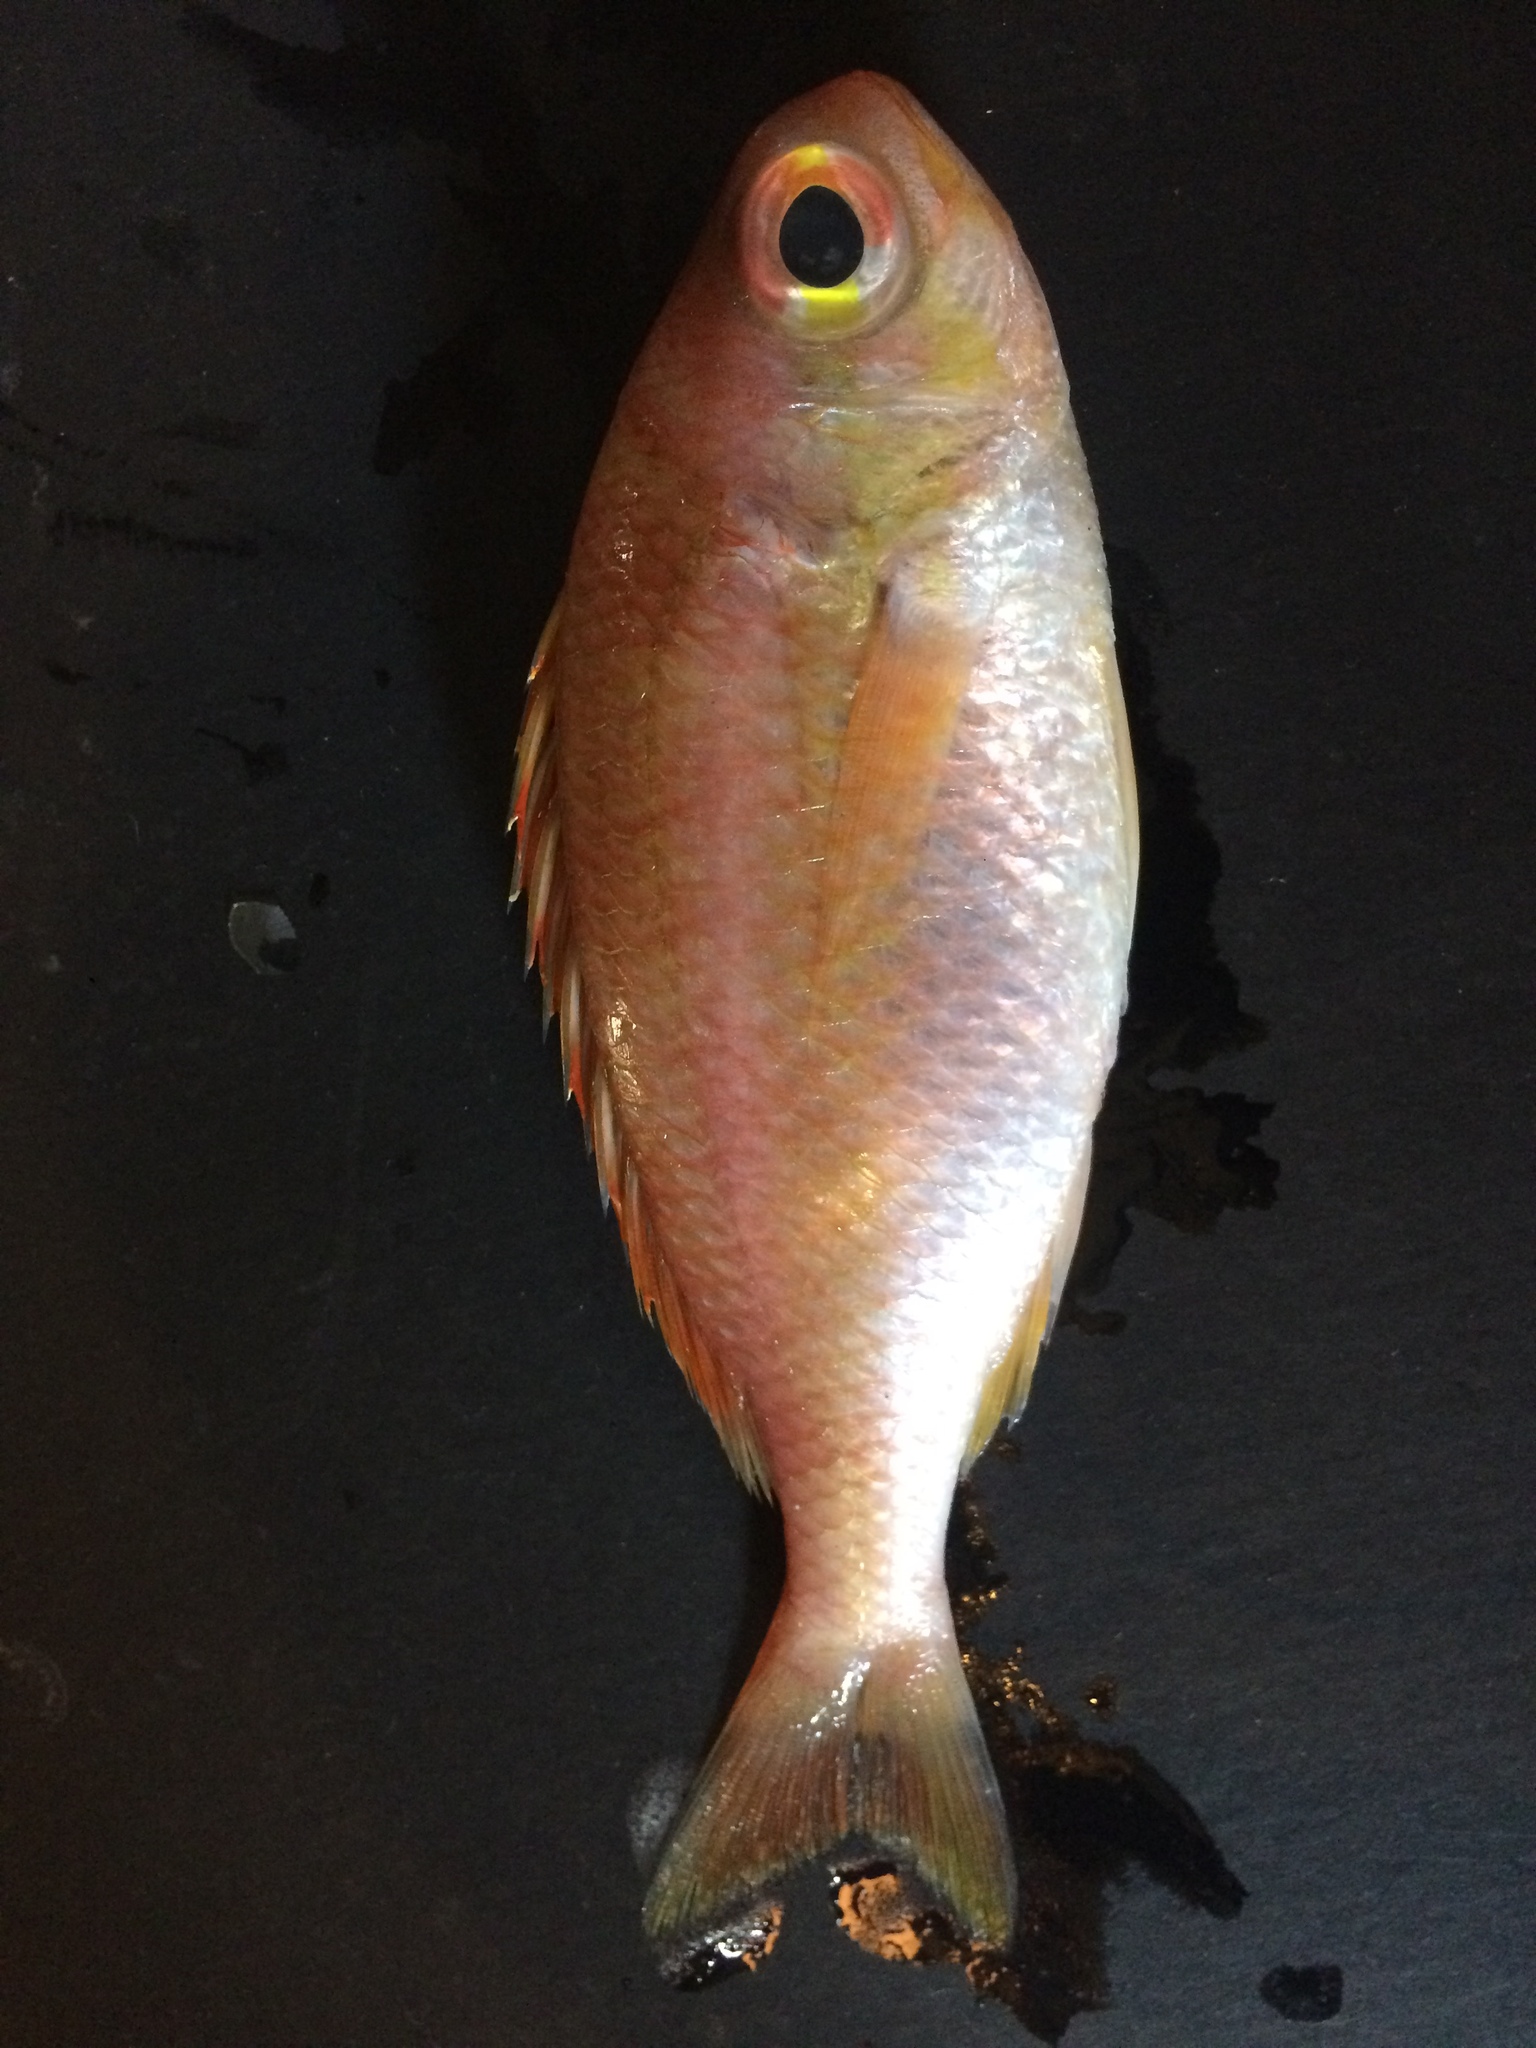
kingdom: Animalia
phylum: Chordata
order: Perciformes
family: Nemipteridae
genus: Parascolopsis
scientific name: Parascolopsis eriomma
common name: Rosy dwarf monocle bream
